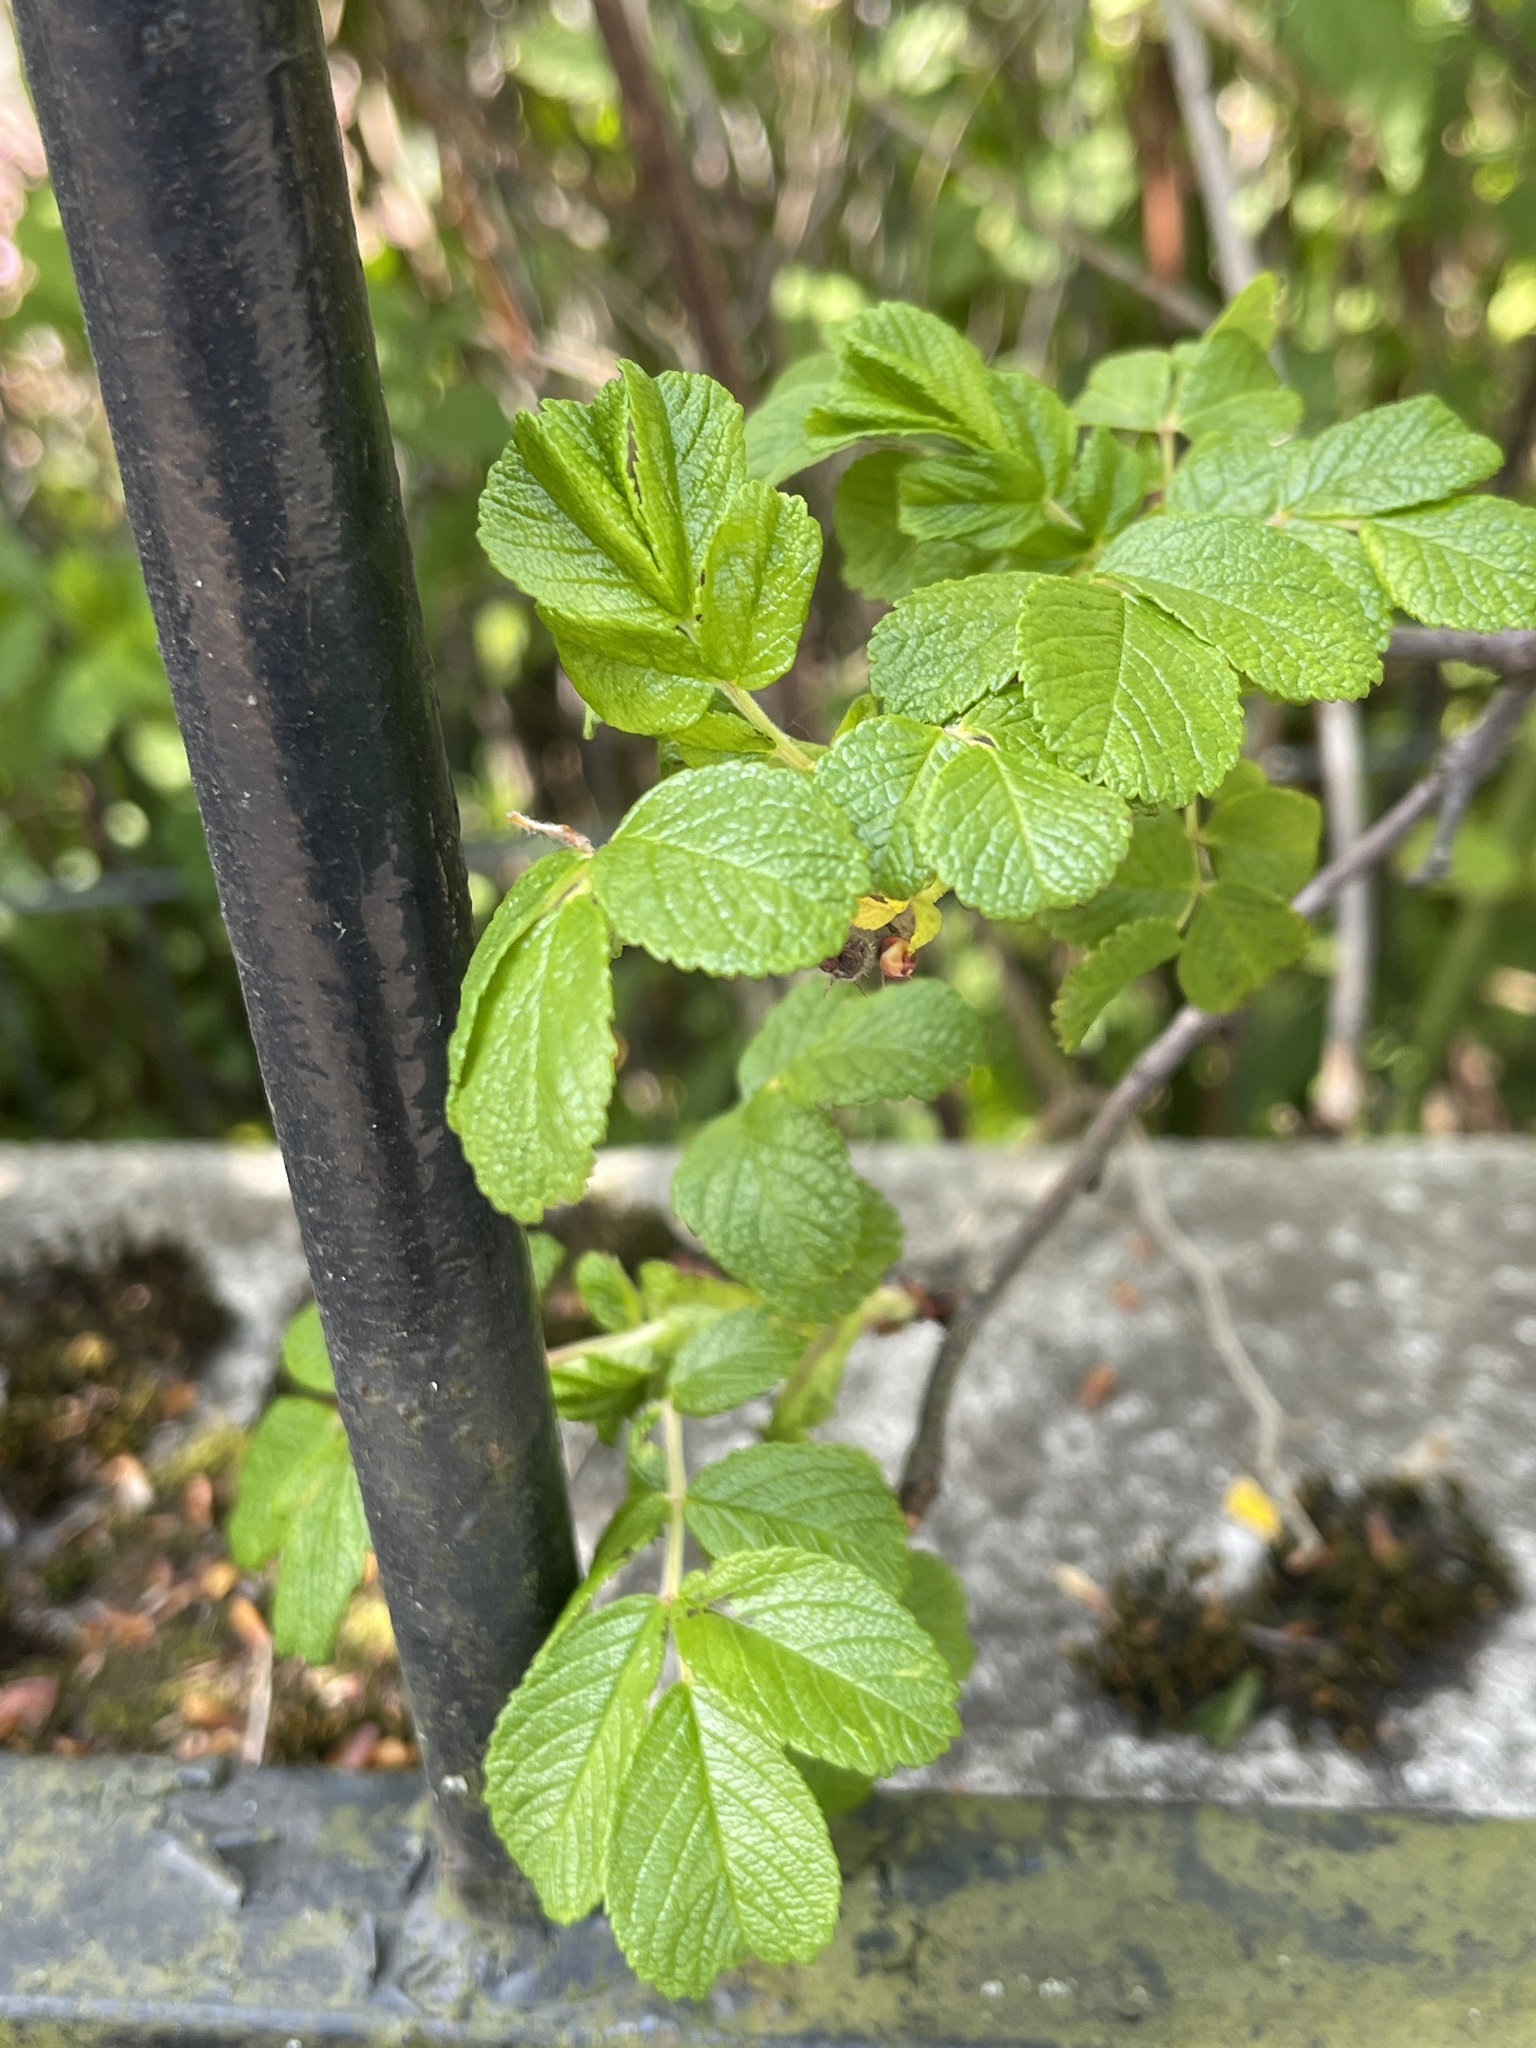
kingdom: Plantae
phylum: Tracheophyta
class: Magnoliopsida
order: Rosales
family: Rosaceae
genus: Rosa
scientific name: Rosa rugosa
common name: Japanese rose
